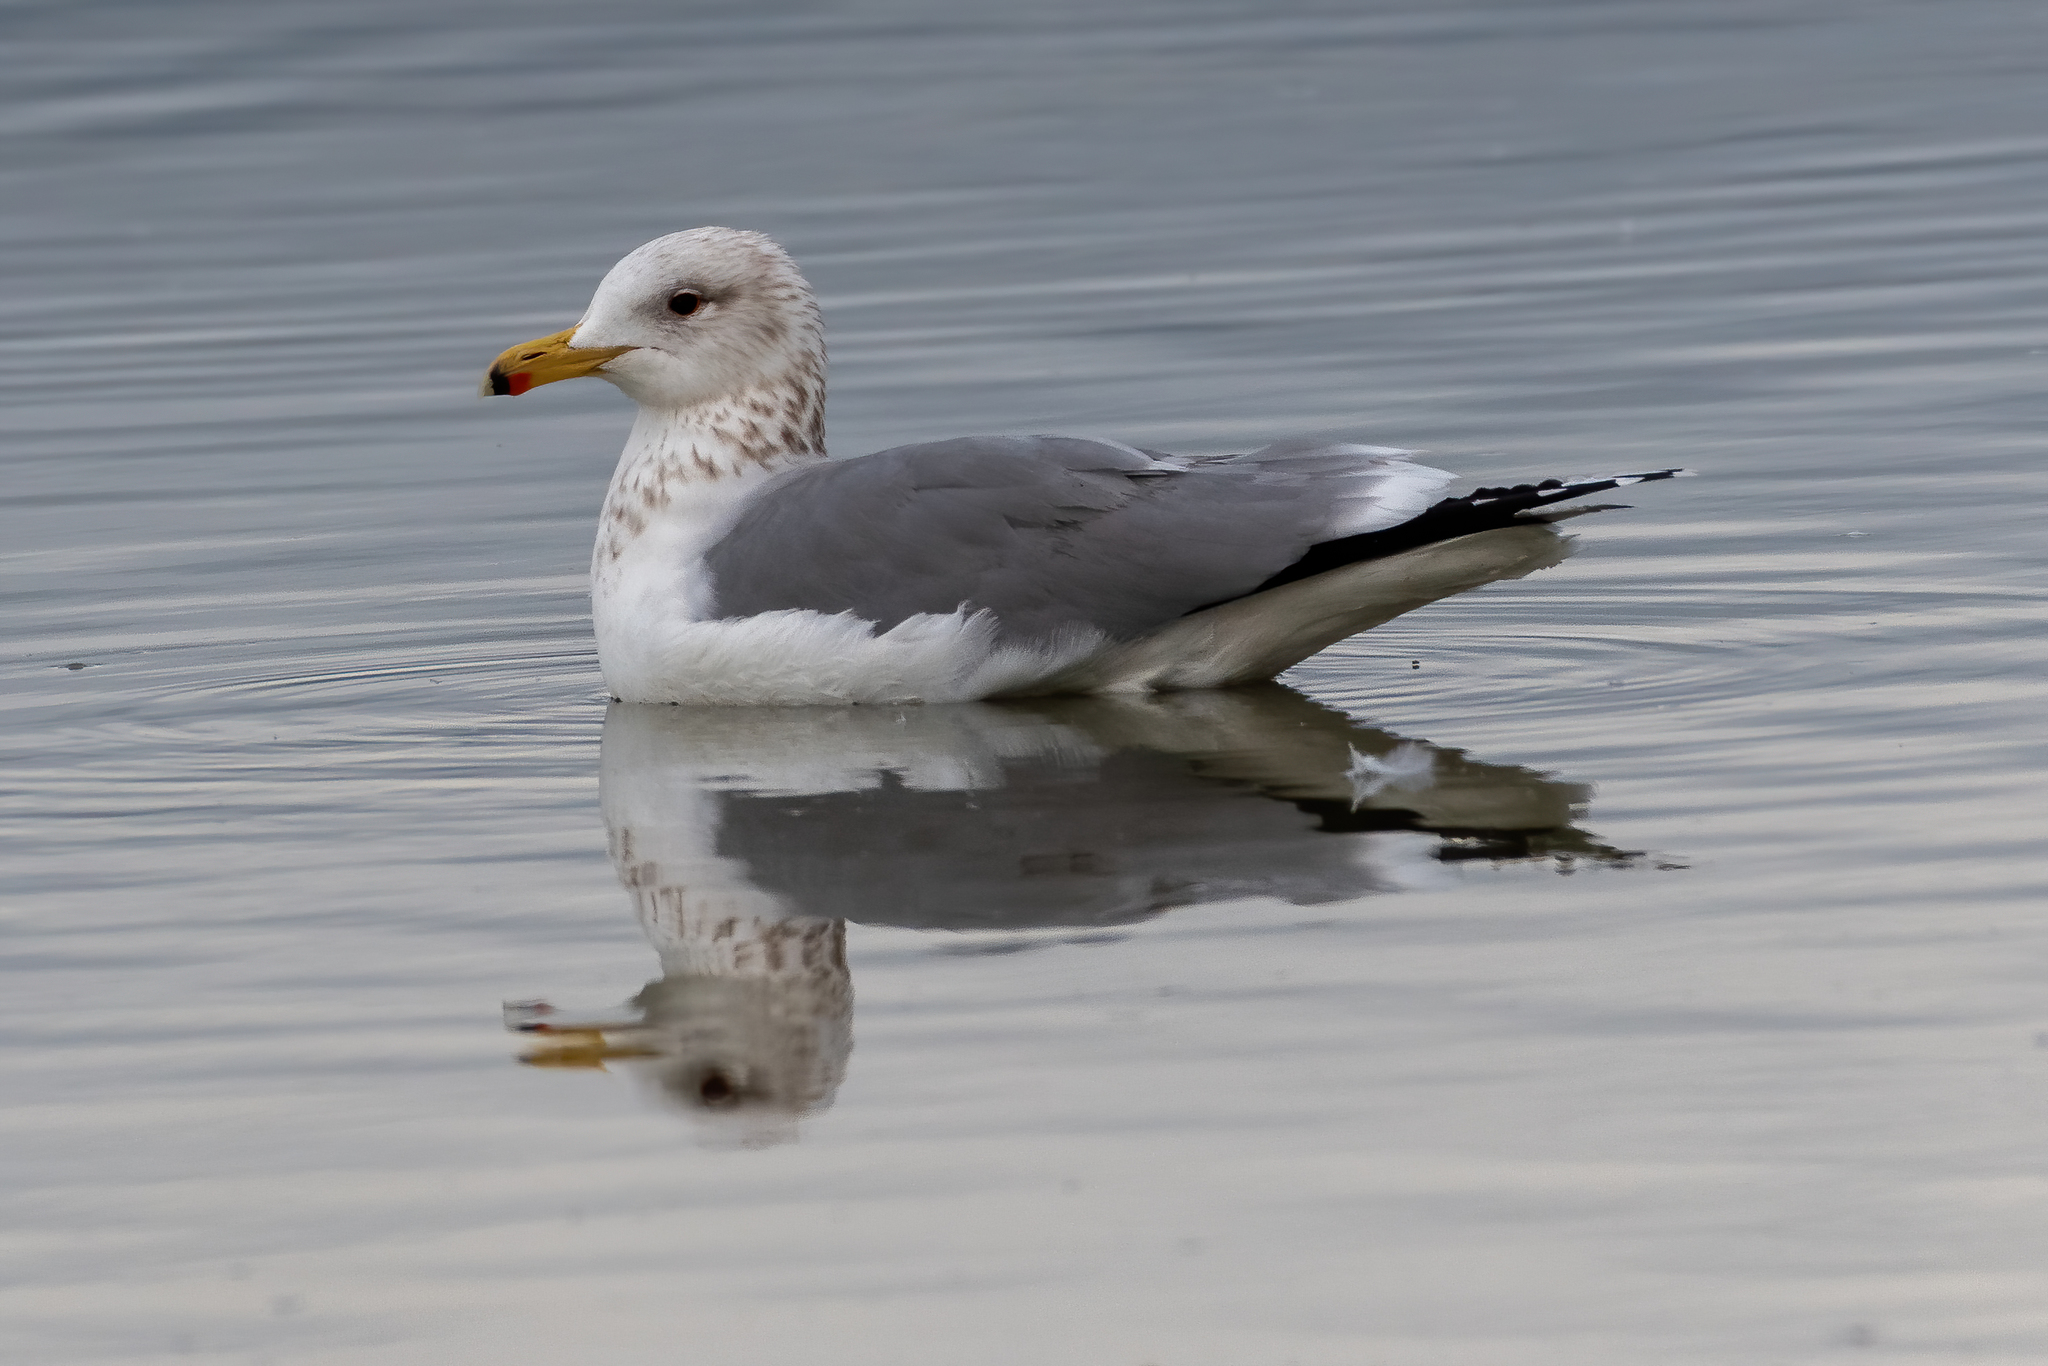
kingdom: Animalia
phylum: Chordata
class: Aves
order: Charadriiformes
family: Laridae
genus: Larus
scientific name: Larus californicus
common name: California gull
